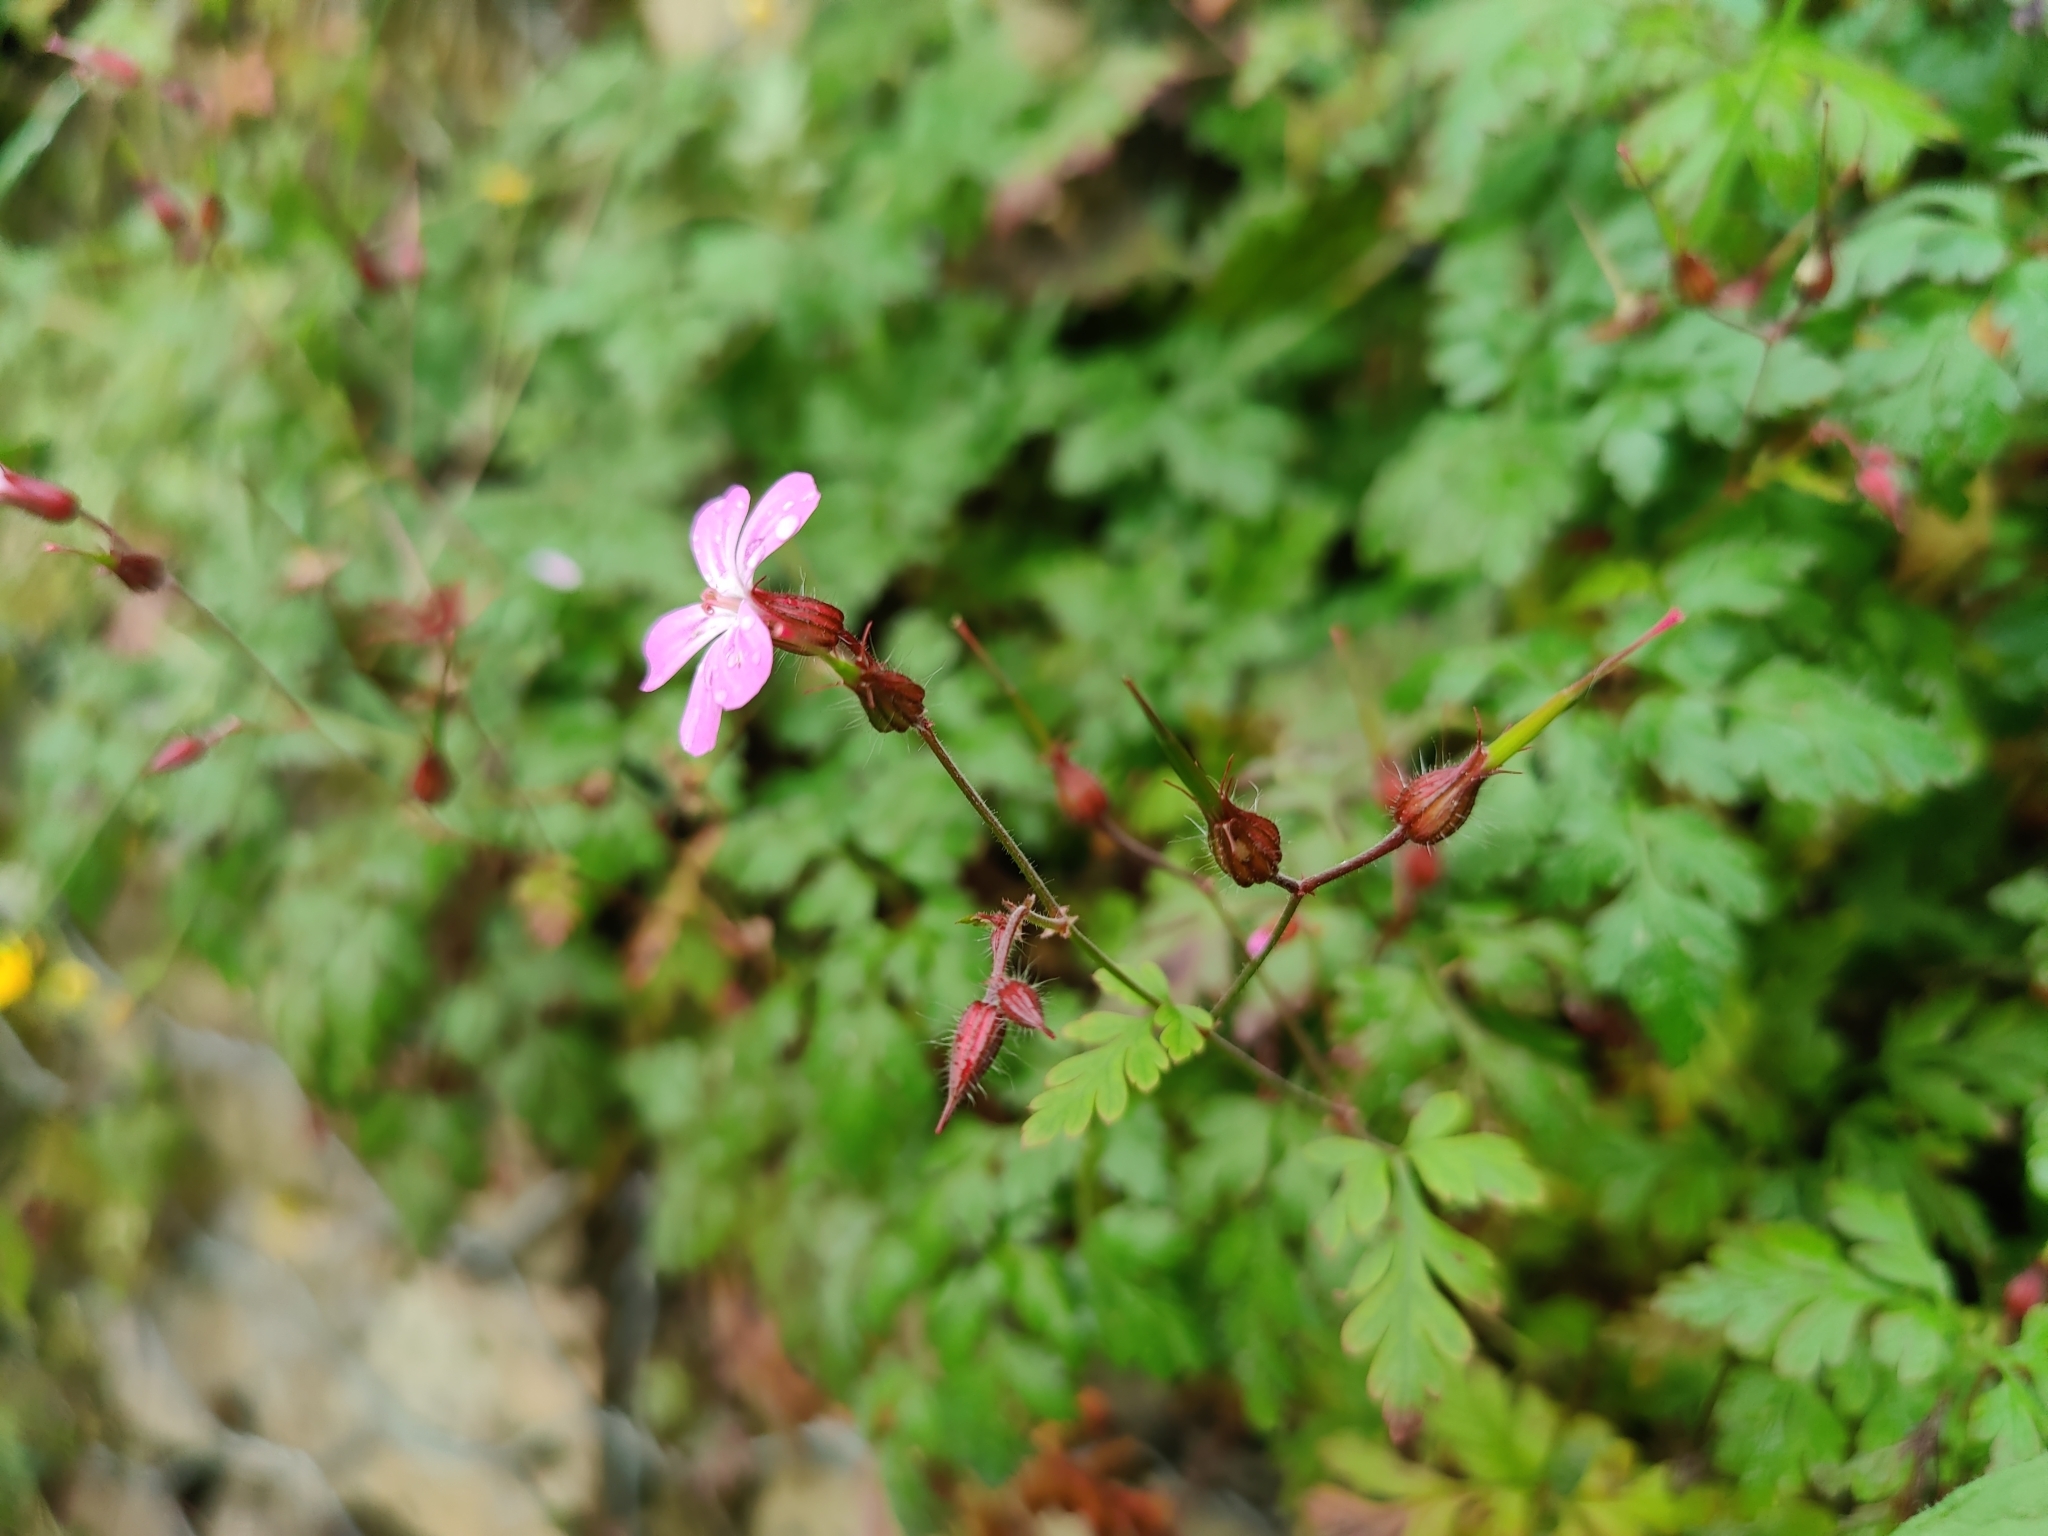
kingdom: Plantae
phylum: Tracheophyta
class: Magnoliopsida
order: Geraniales
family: Geraniaceae
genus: Geranium
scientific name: Geranium robertianum
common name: Herb-robert
